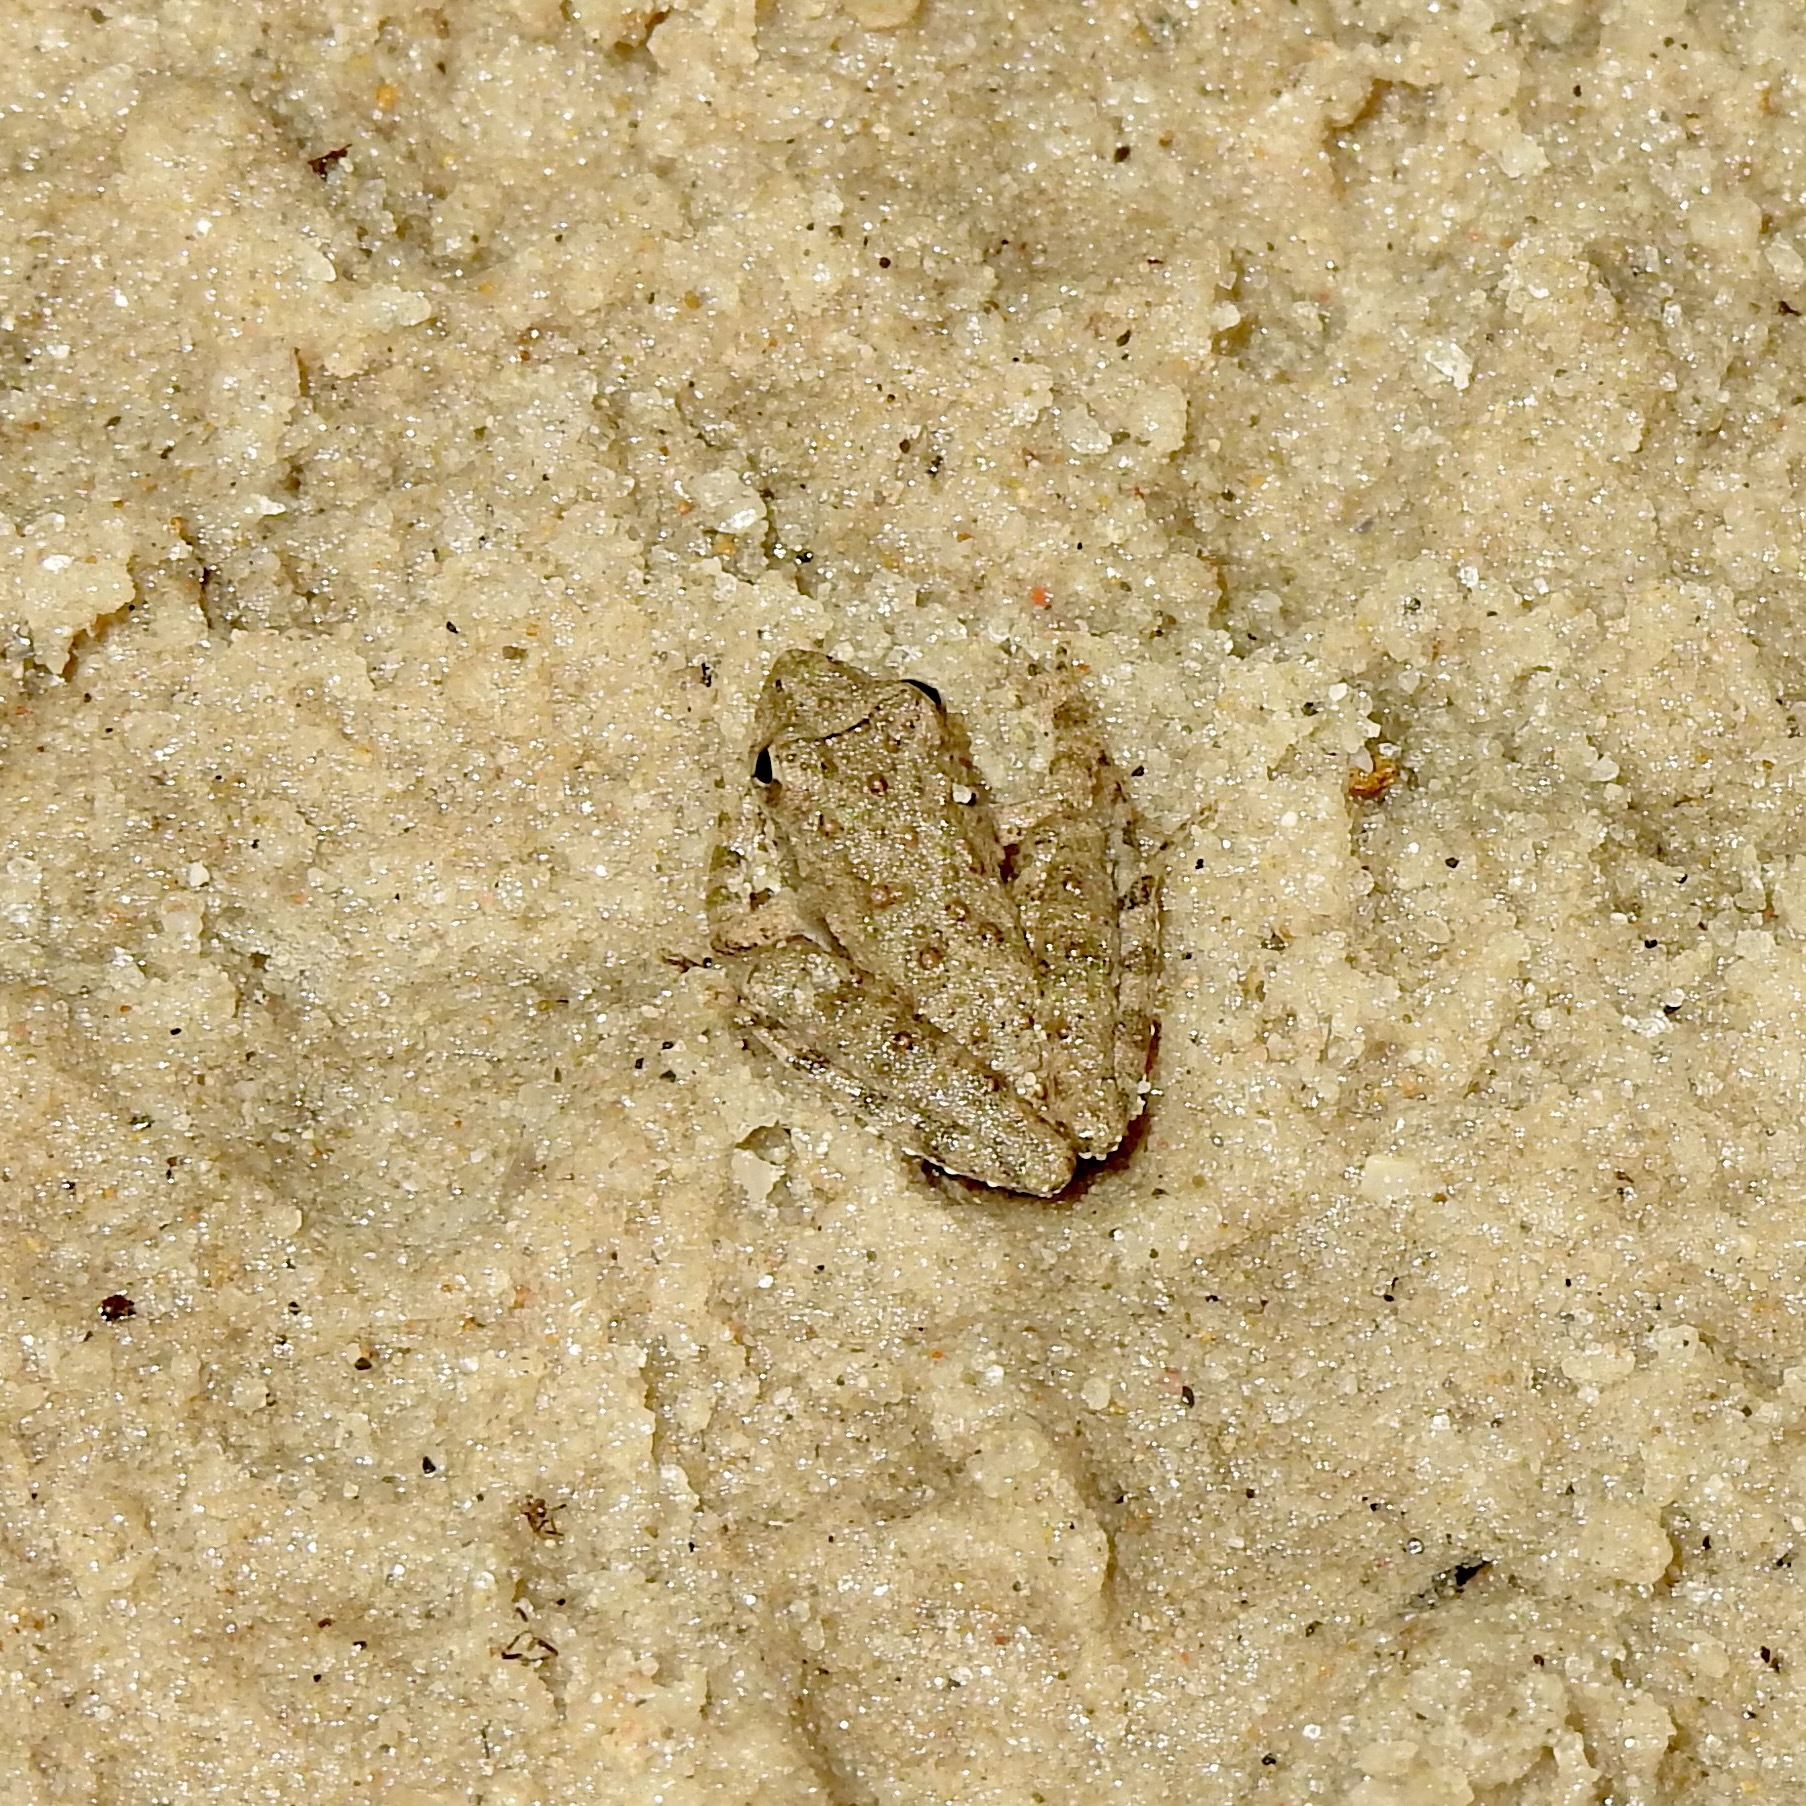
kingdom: Animalia
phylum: Chordata
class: Amphibia
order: Anura
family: Hylidae
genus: Acris
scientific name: Acris blanchardi
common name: Blanchard's cricket frog
